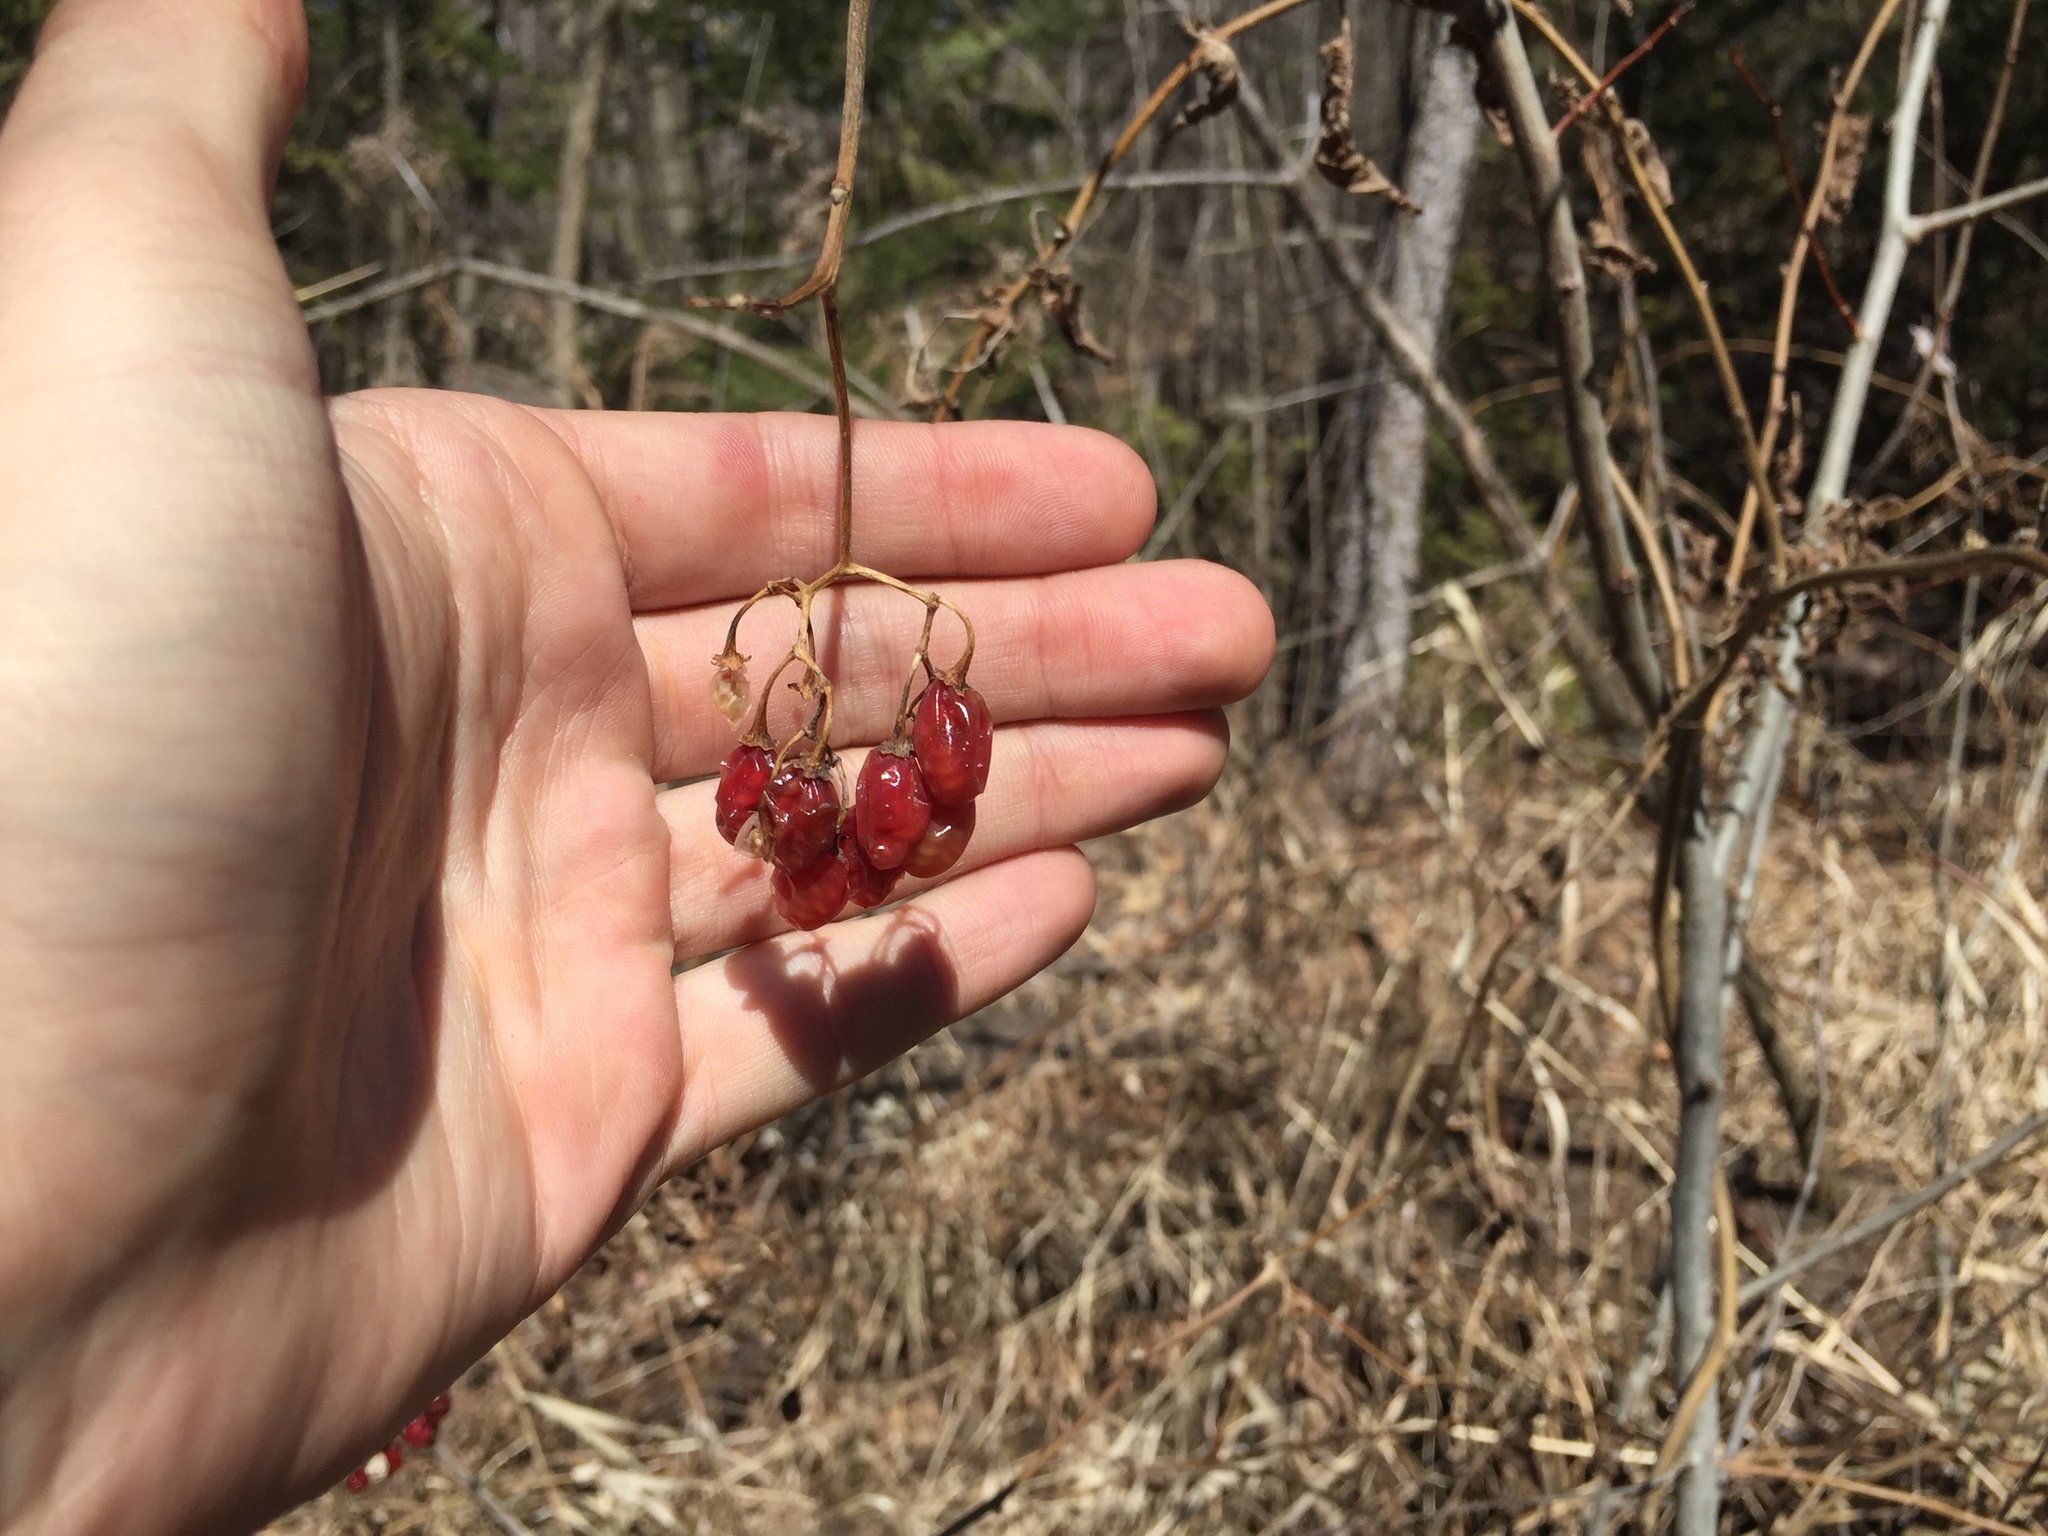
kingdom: Plantae
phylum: Tracheophyta
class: Magnoliopsida
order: Solanales
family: Solanaceae
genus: Solanum
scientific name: Solanum dulcamara
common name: Climbing nightshade
